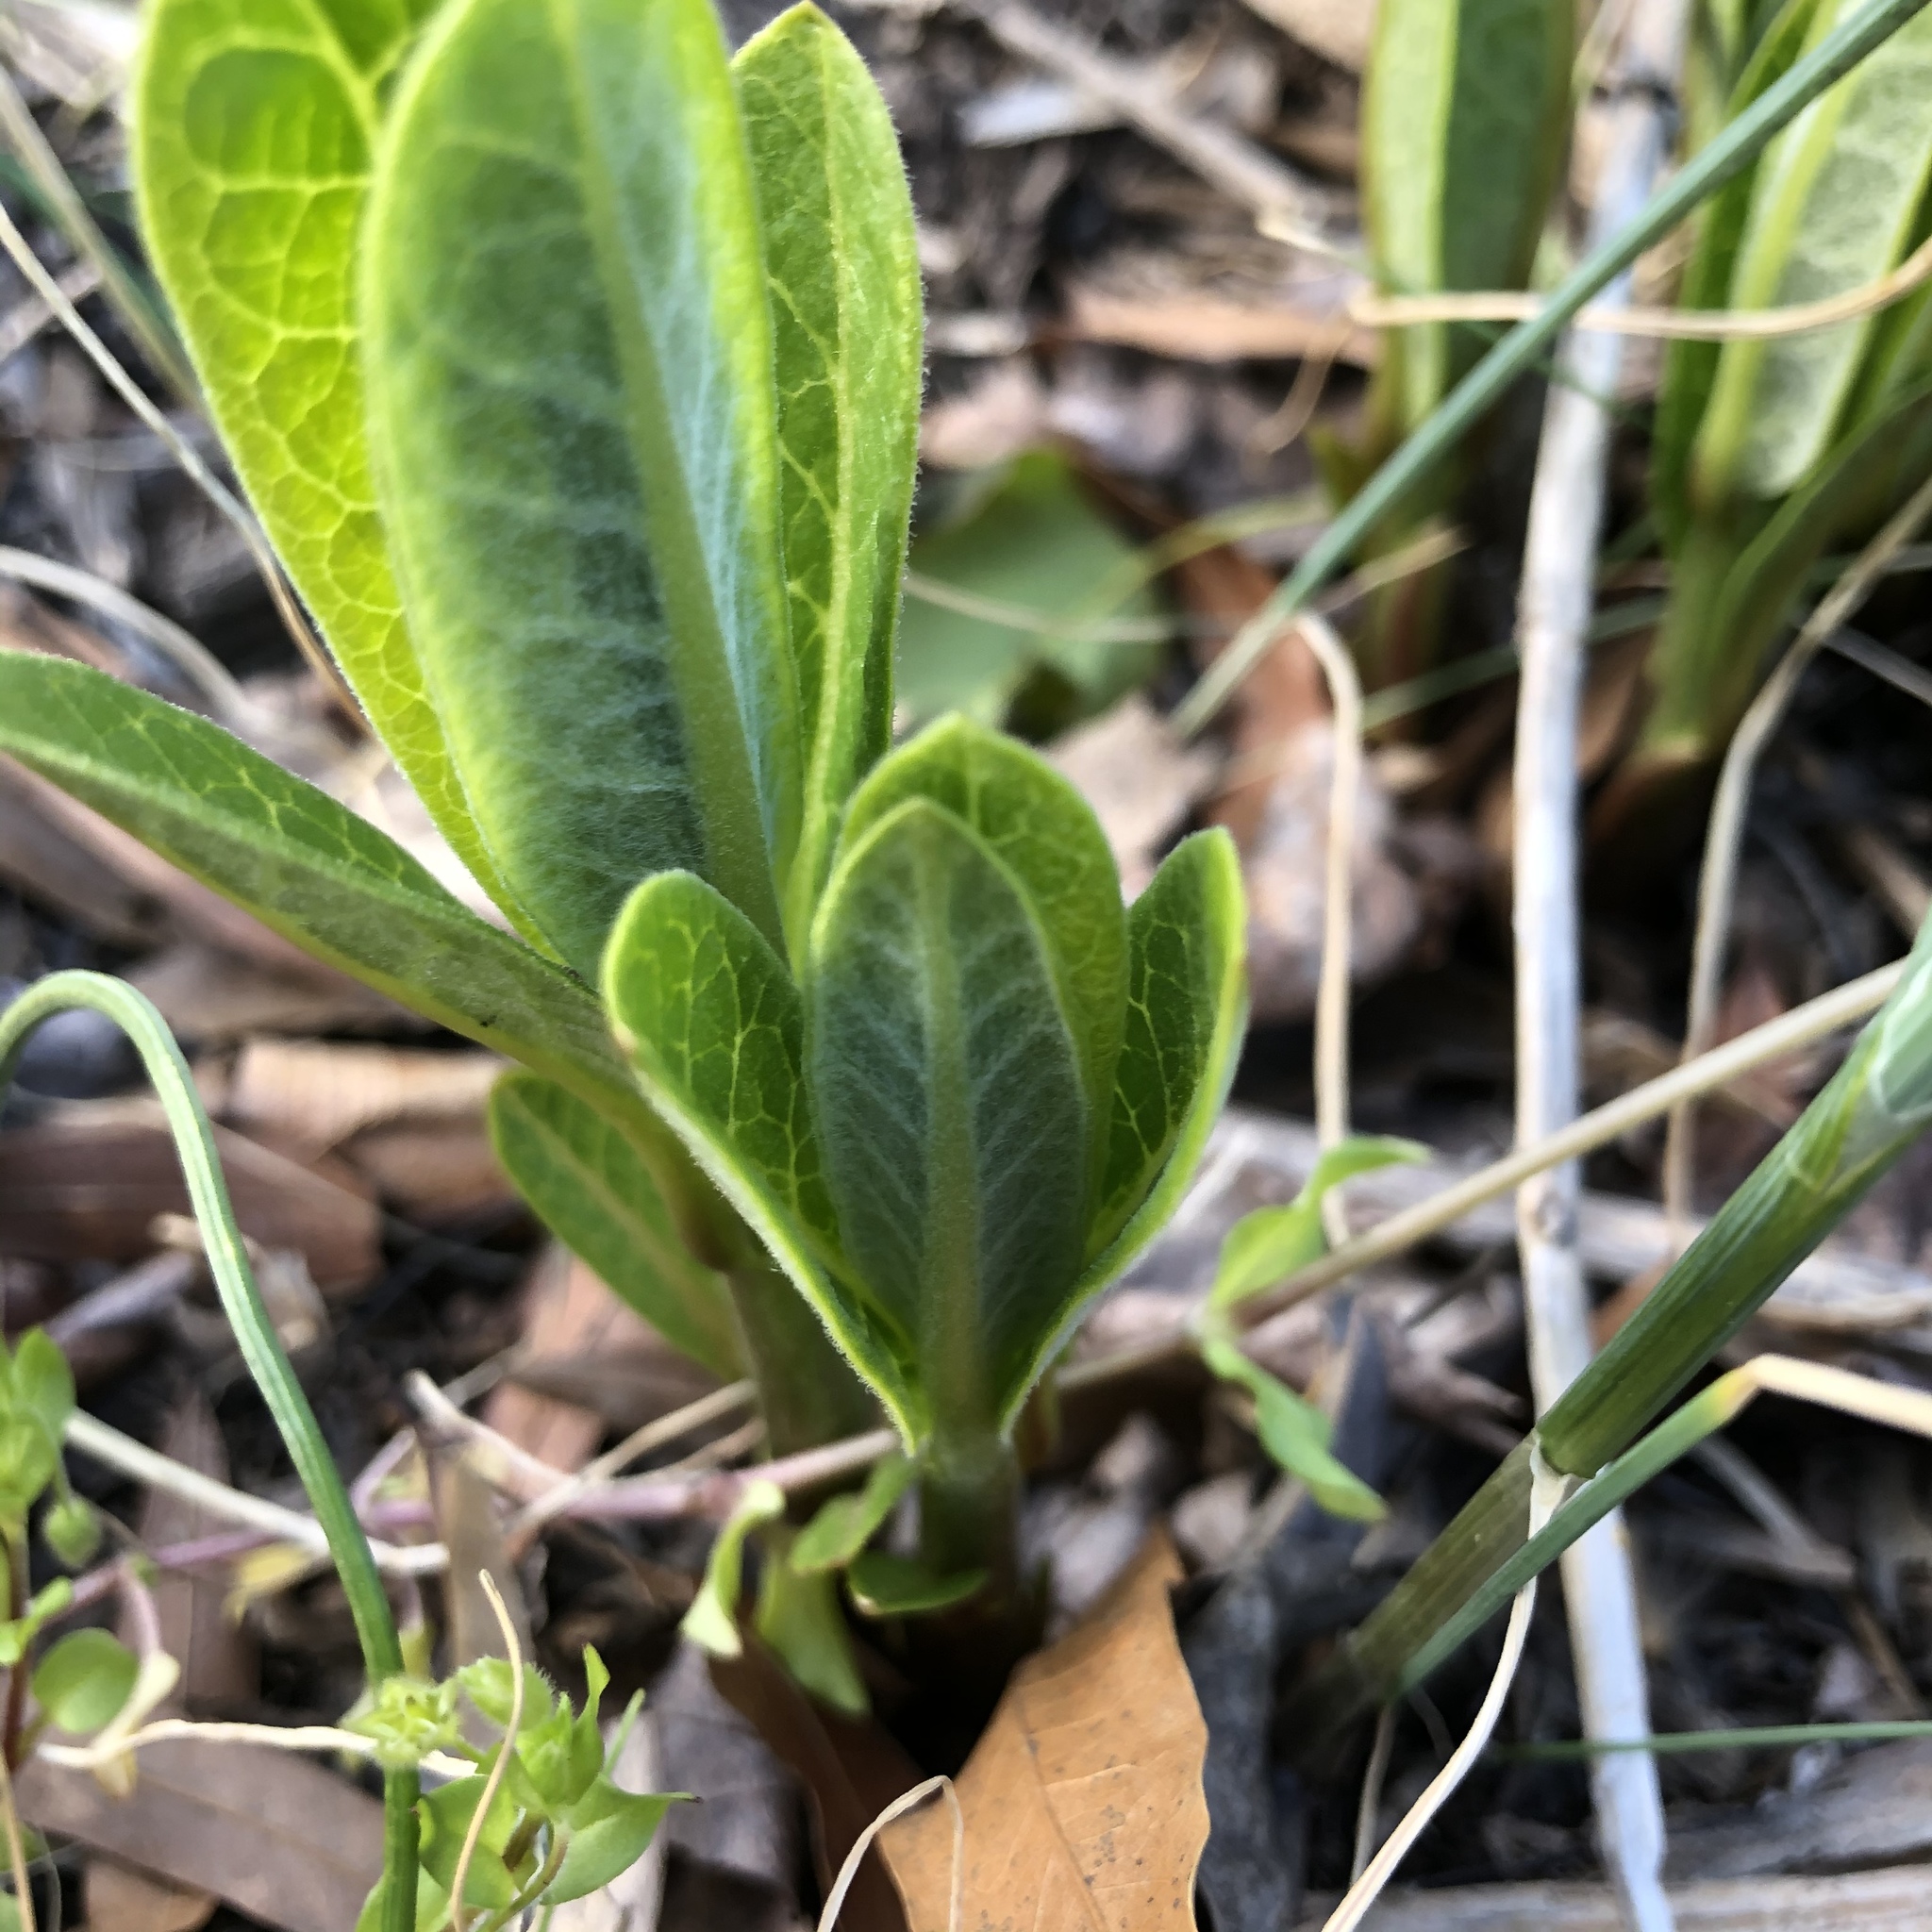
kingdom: Plantae
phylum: Tracheophyta
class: Magnoliopsida
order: Gentianales
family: Apocynaceae
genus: Asclepias
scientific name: Asclepias syriaca
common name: Common milkweed
